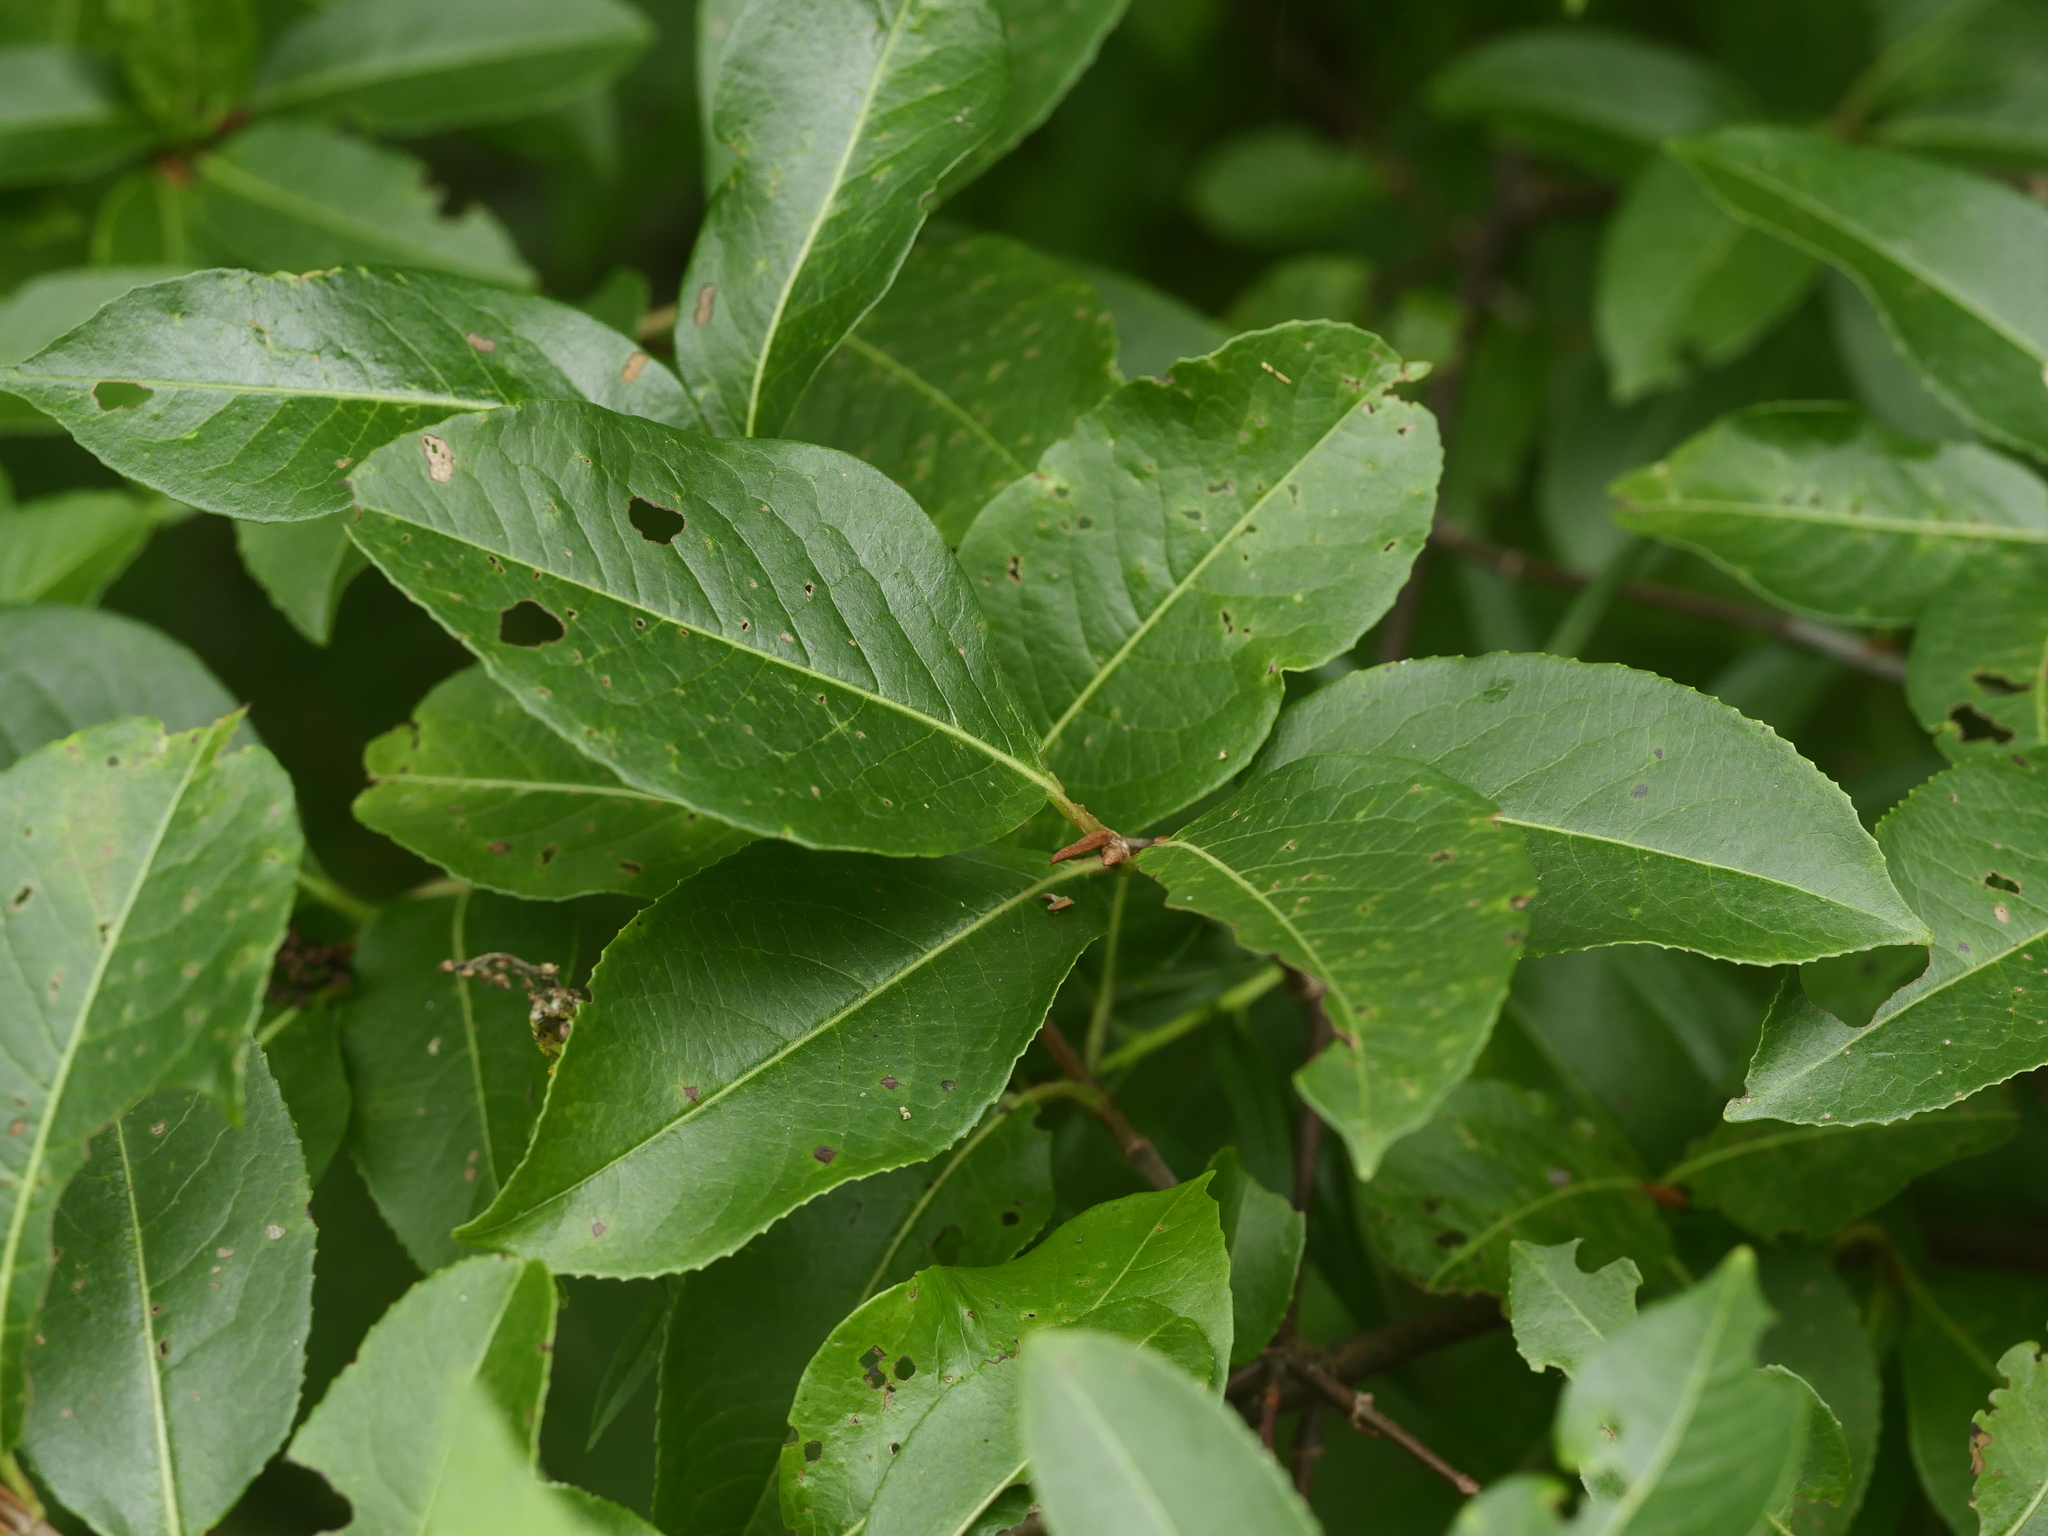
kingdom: Plantae
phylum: Tracheophyta
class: Magnoliopsida
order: Dipsacales
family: Viburnaceae
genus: Viburnum
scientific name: Viburnum cassinoides
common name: Swamp haw
